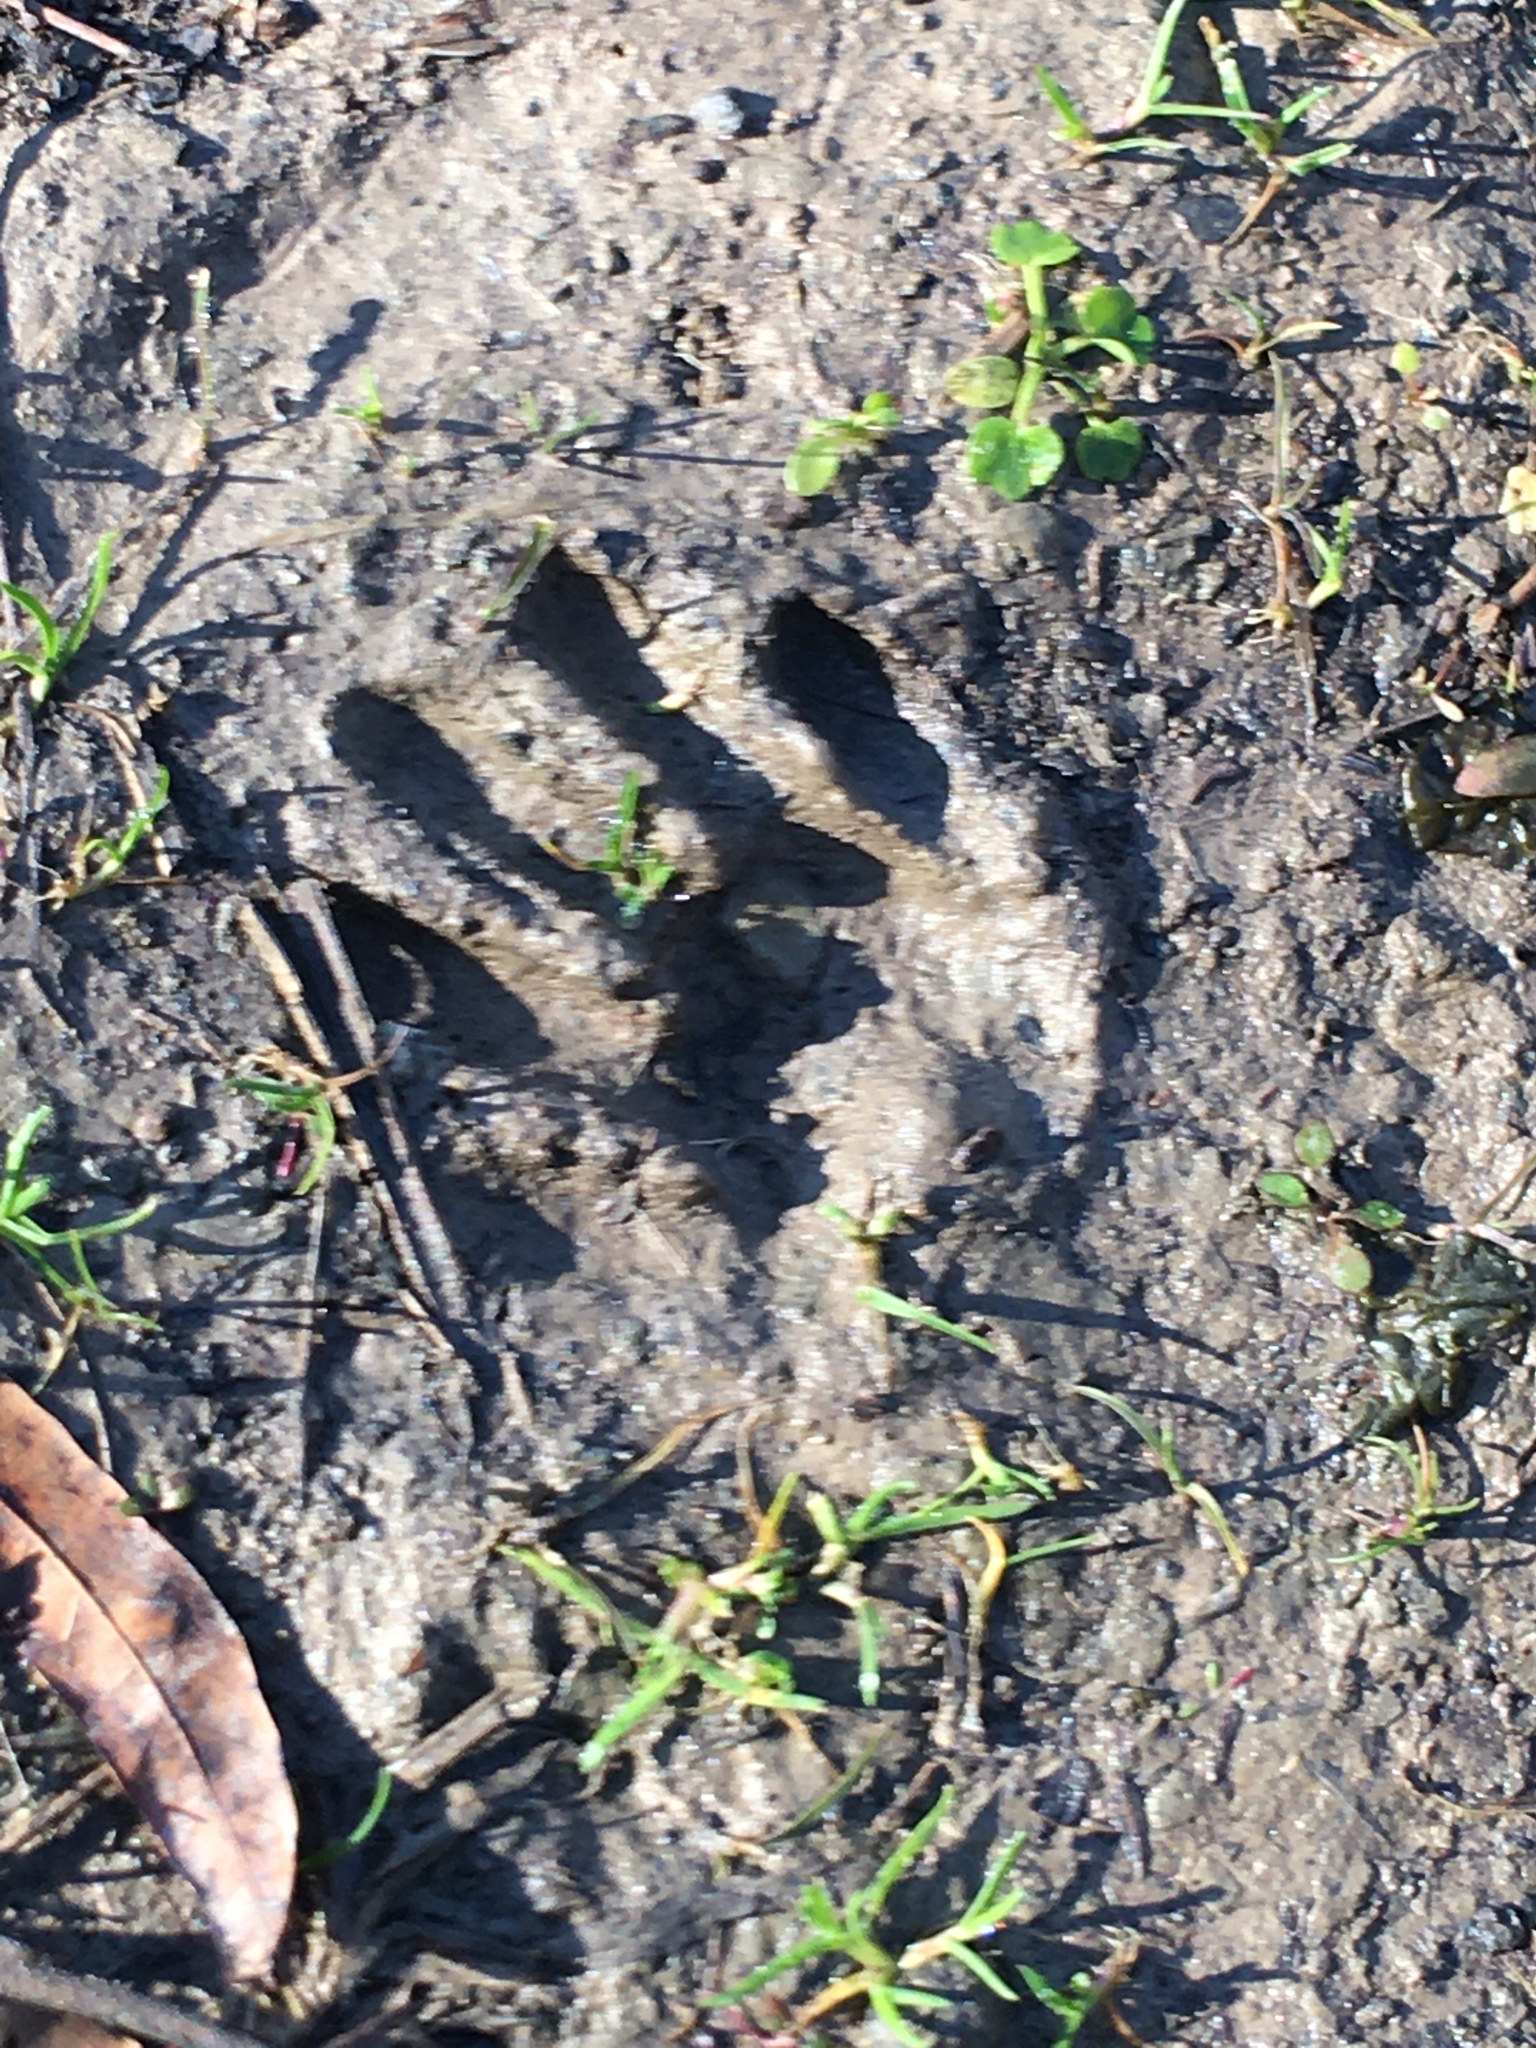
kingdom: Animalia
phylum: Chordata
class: Mammalia
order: Carnivora
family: Procyonidae
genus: Procyon
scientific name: Procyon lotor
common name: Raccoon
